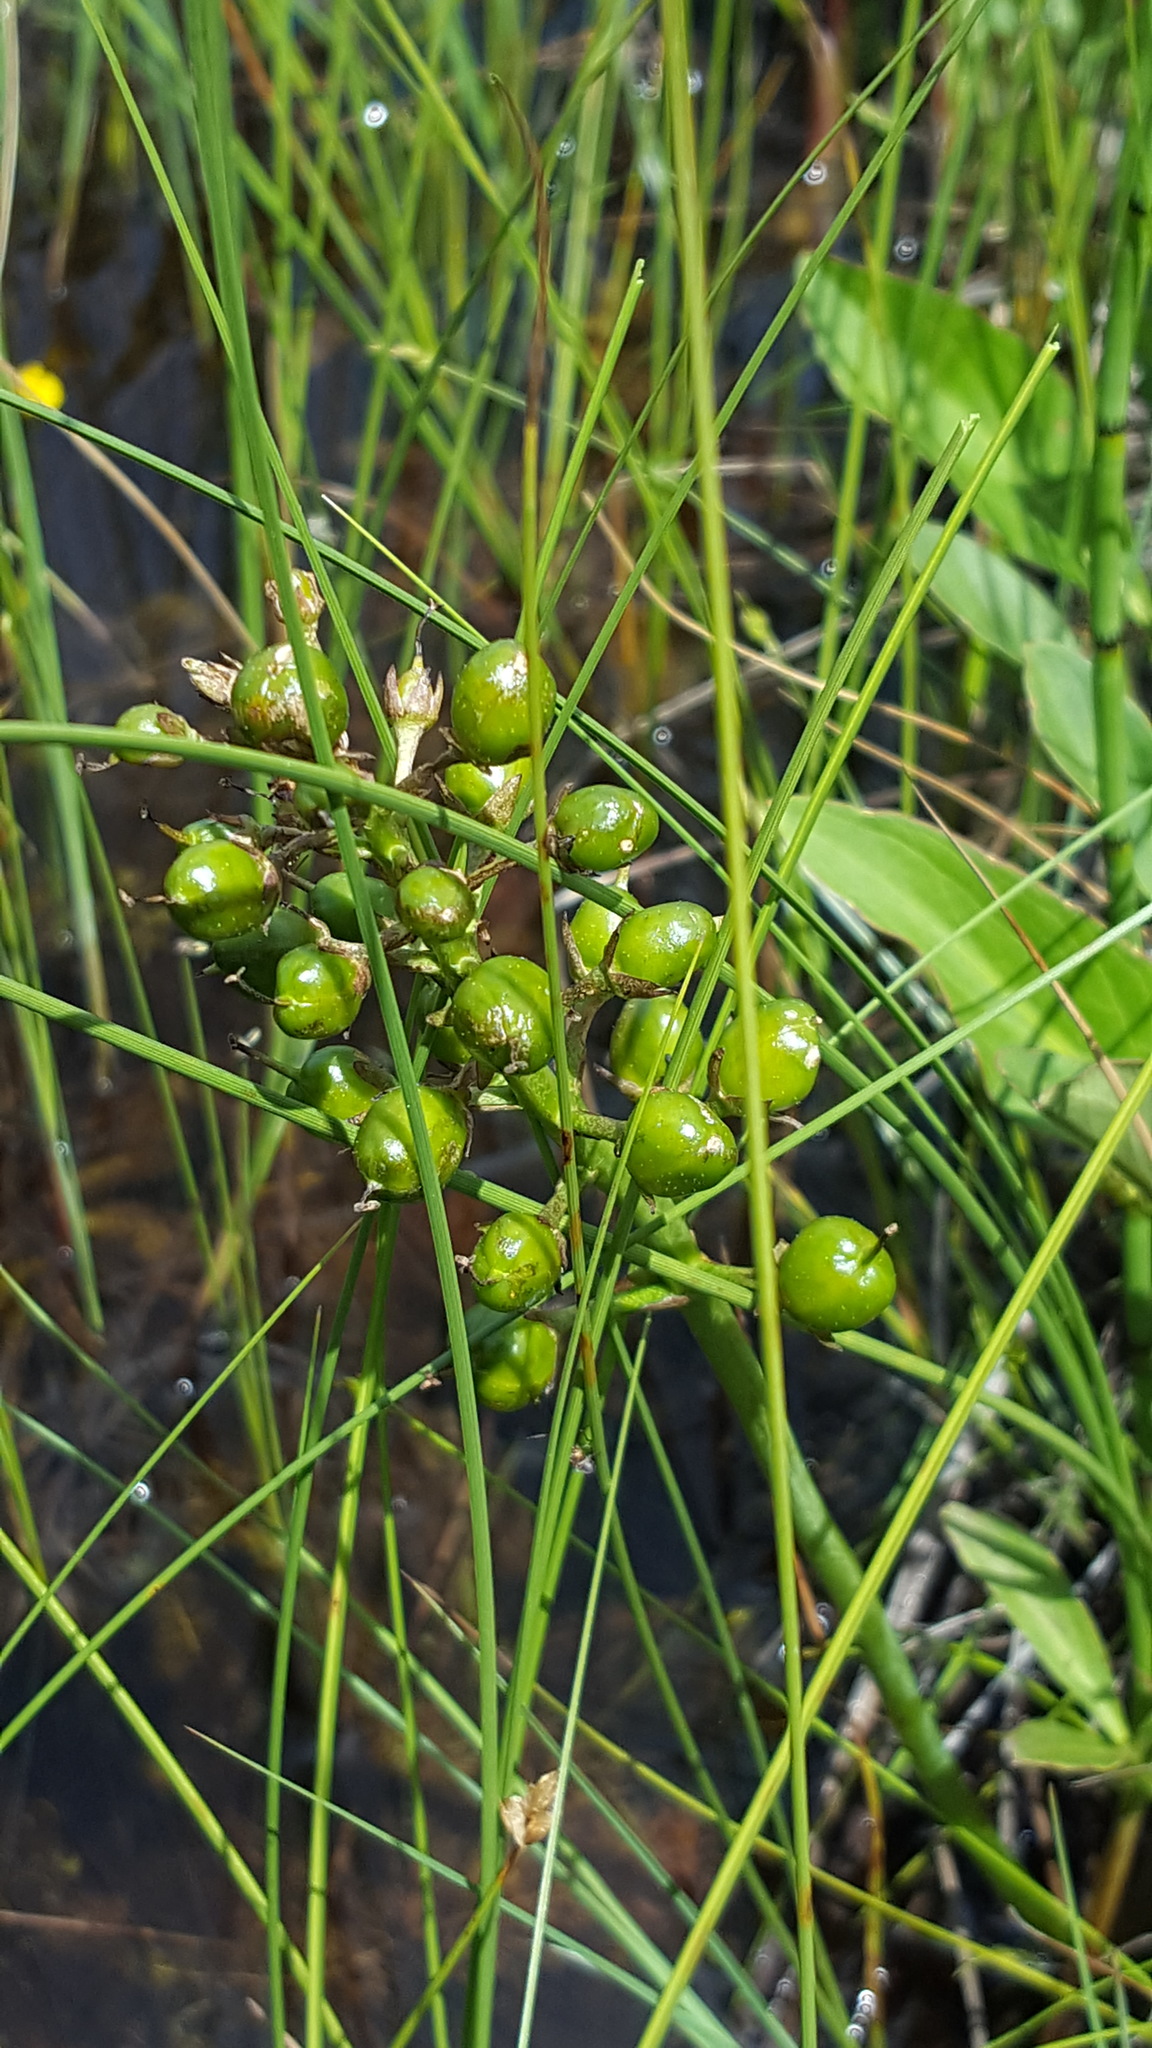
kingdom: Plantae
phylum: Tracheophyta
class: Magnoliopsida
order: Asterales
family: Menyanthaceae
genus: Menyanthes
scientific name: Menyanthes trifoliata
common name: Bogbean
